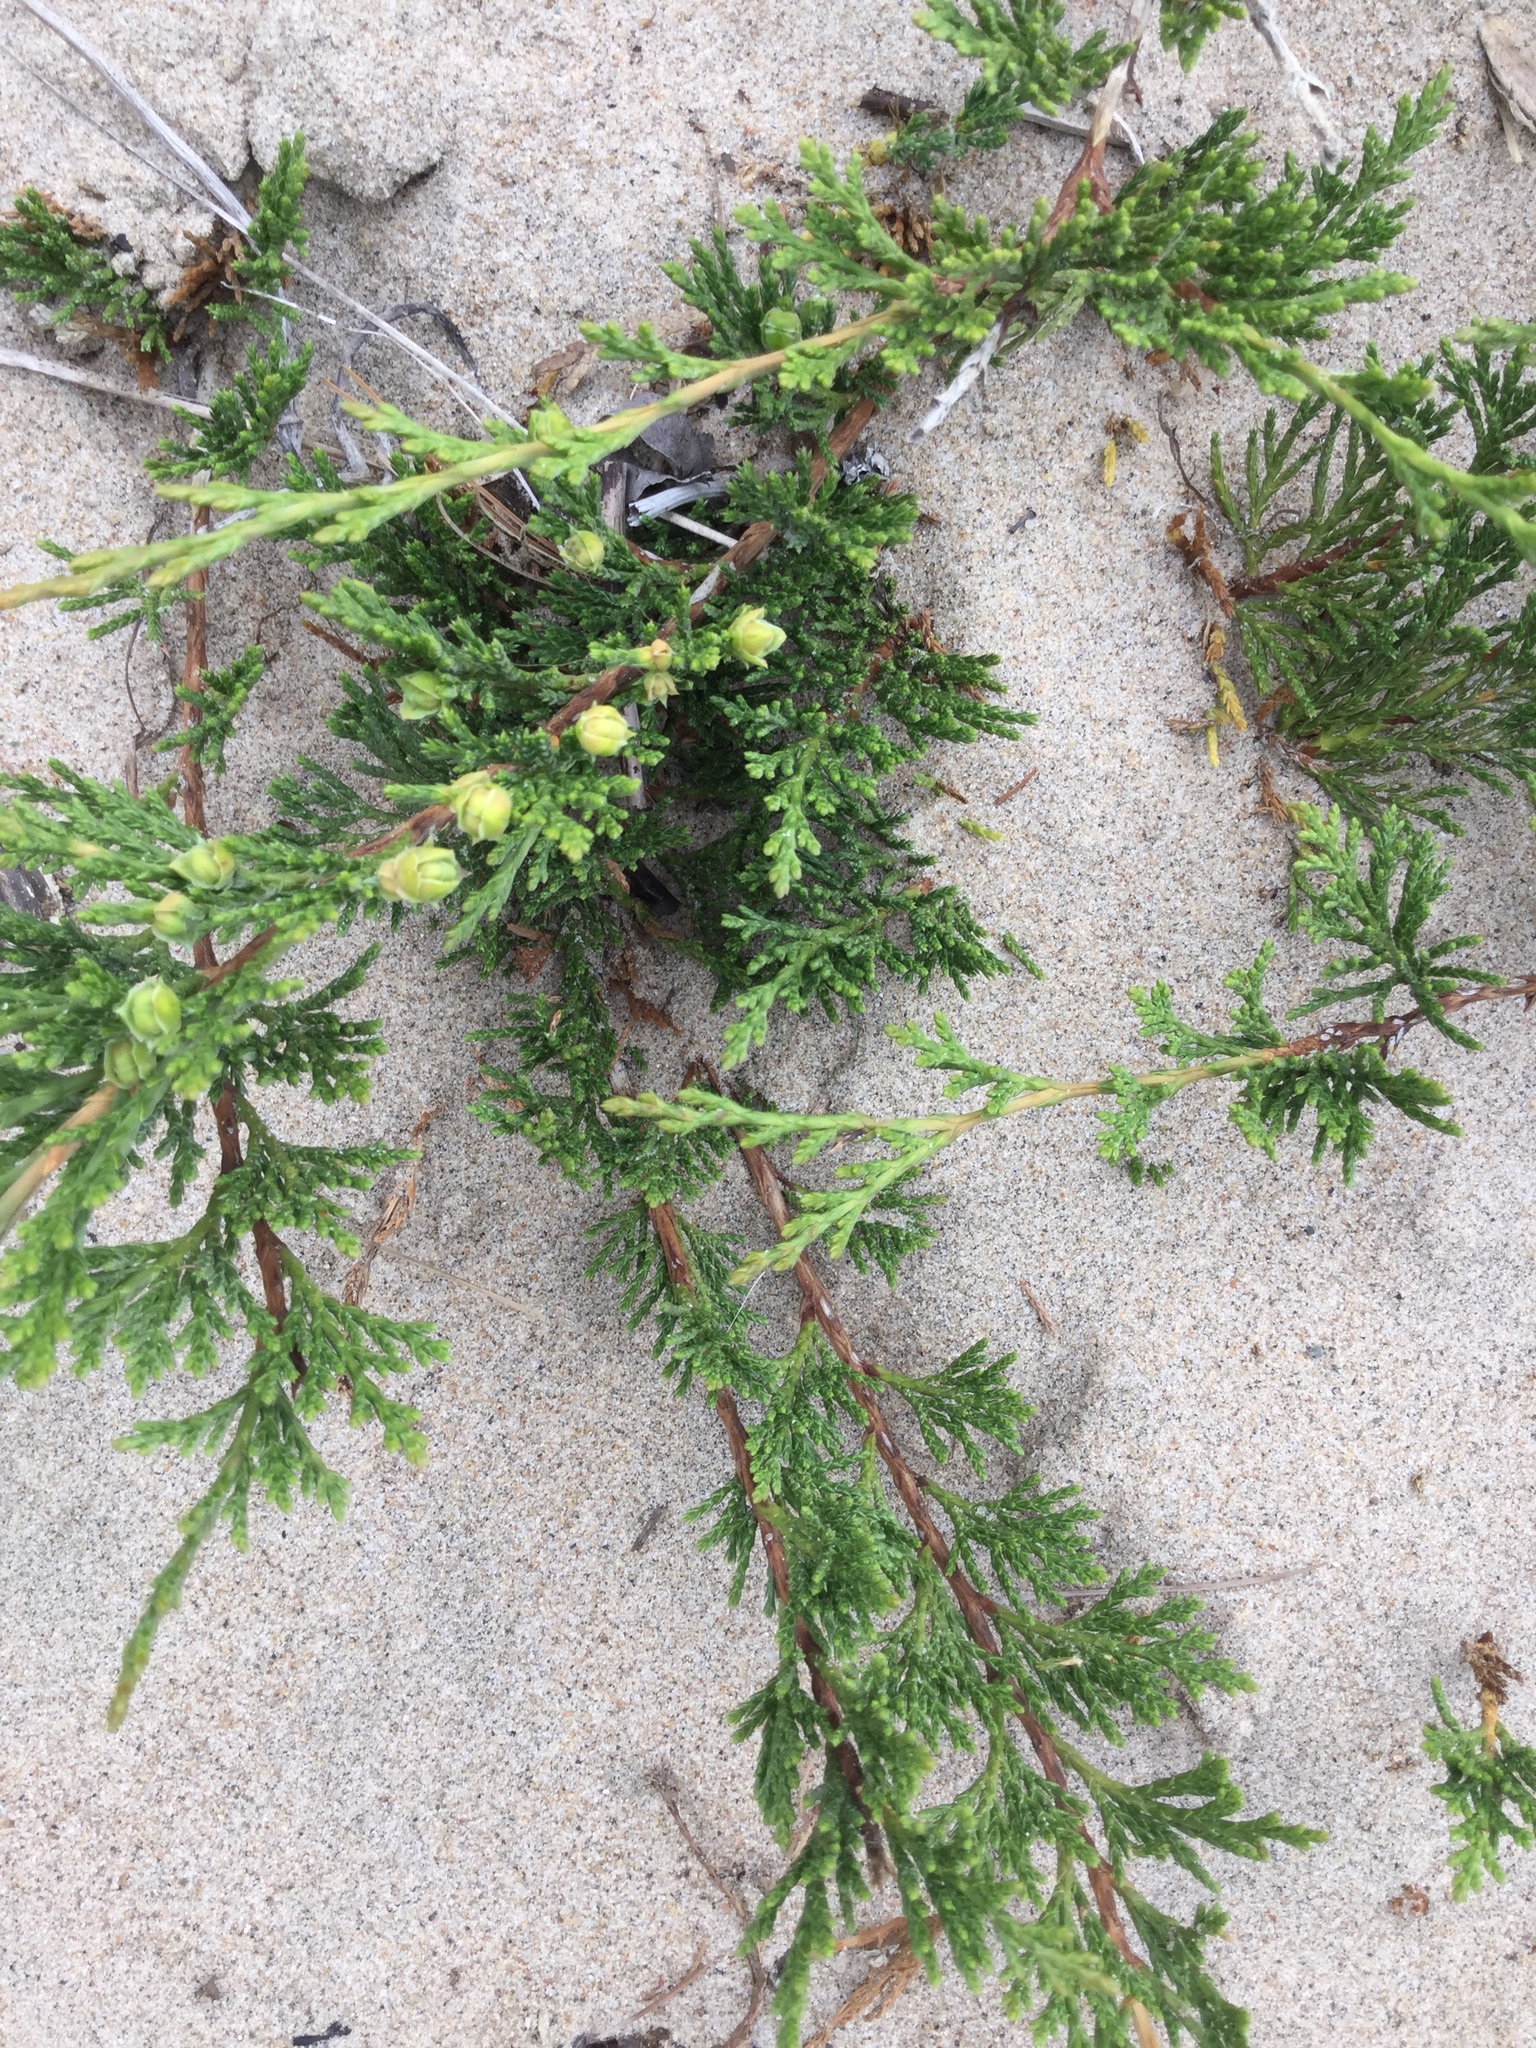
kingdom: Plantae
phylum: Tracheophyta
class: Pinopsida
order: Pinales
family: Cupressaceae
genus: Juniperus
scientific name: Juniperus horizontalis
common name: Creeping juniper
